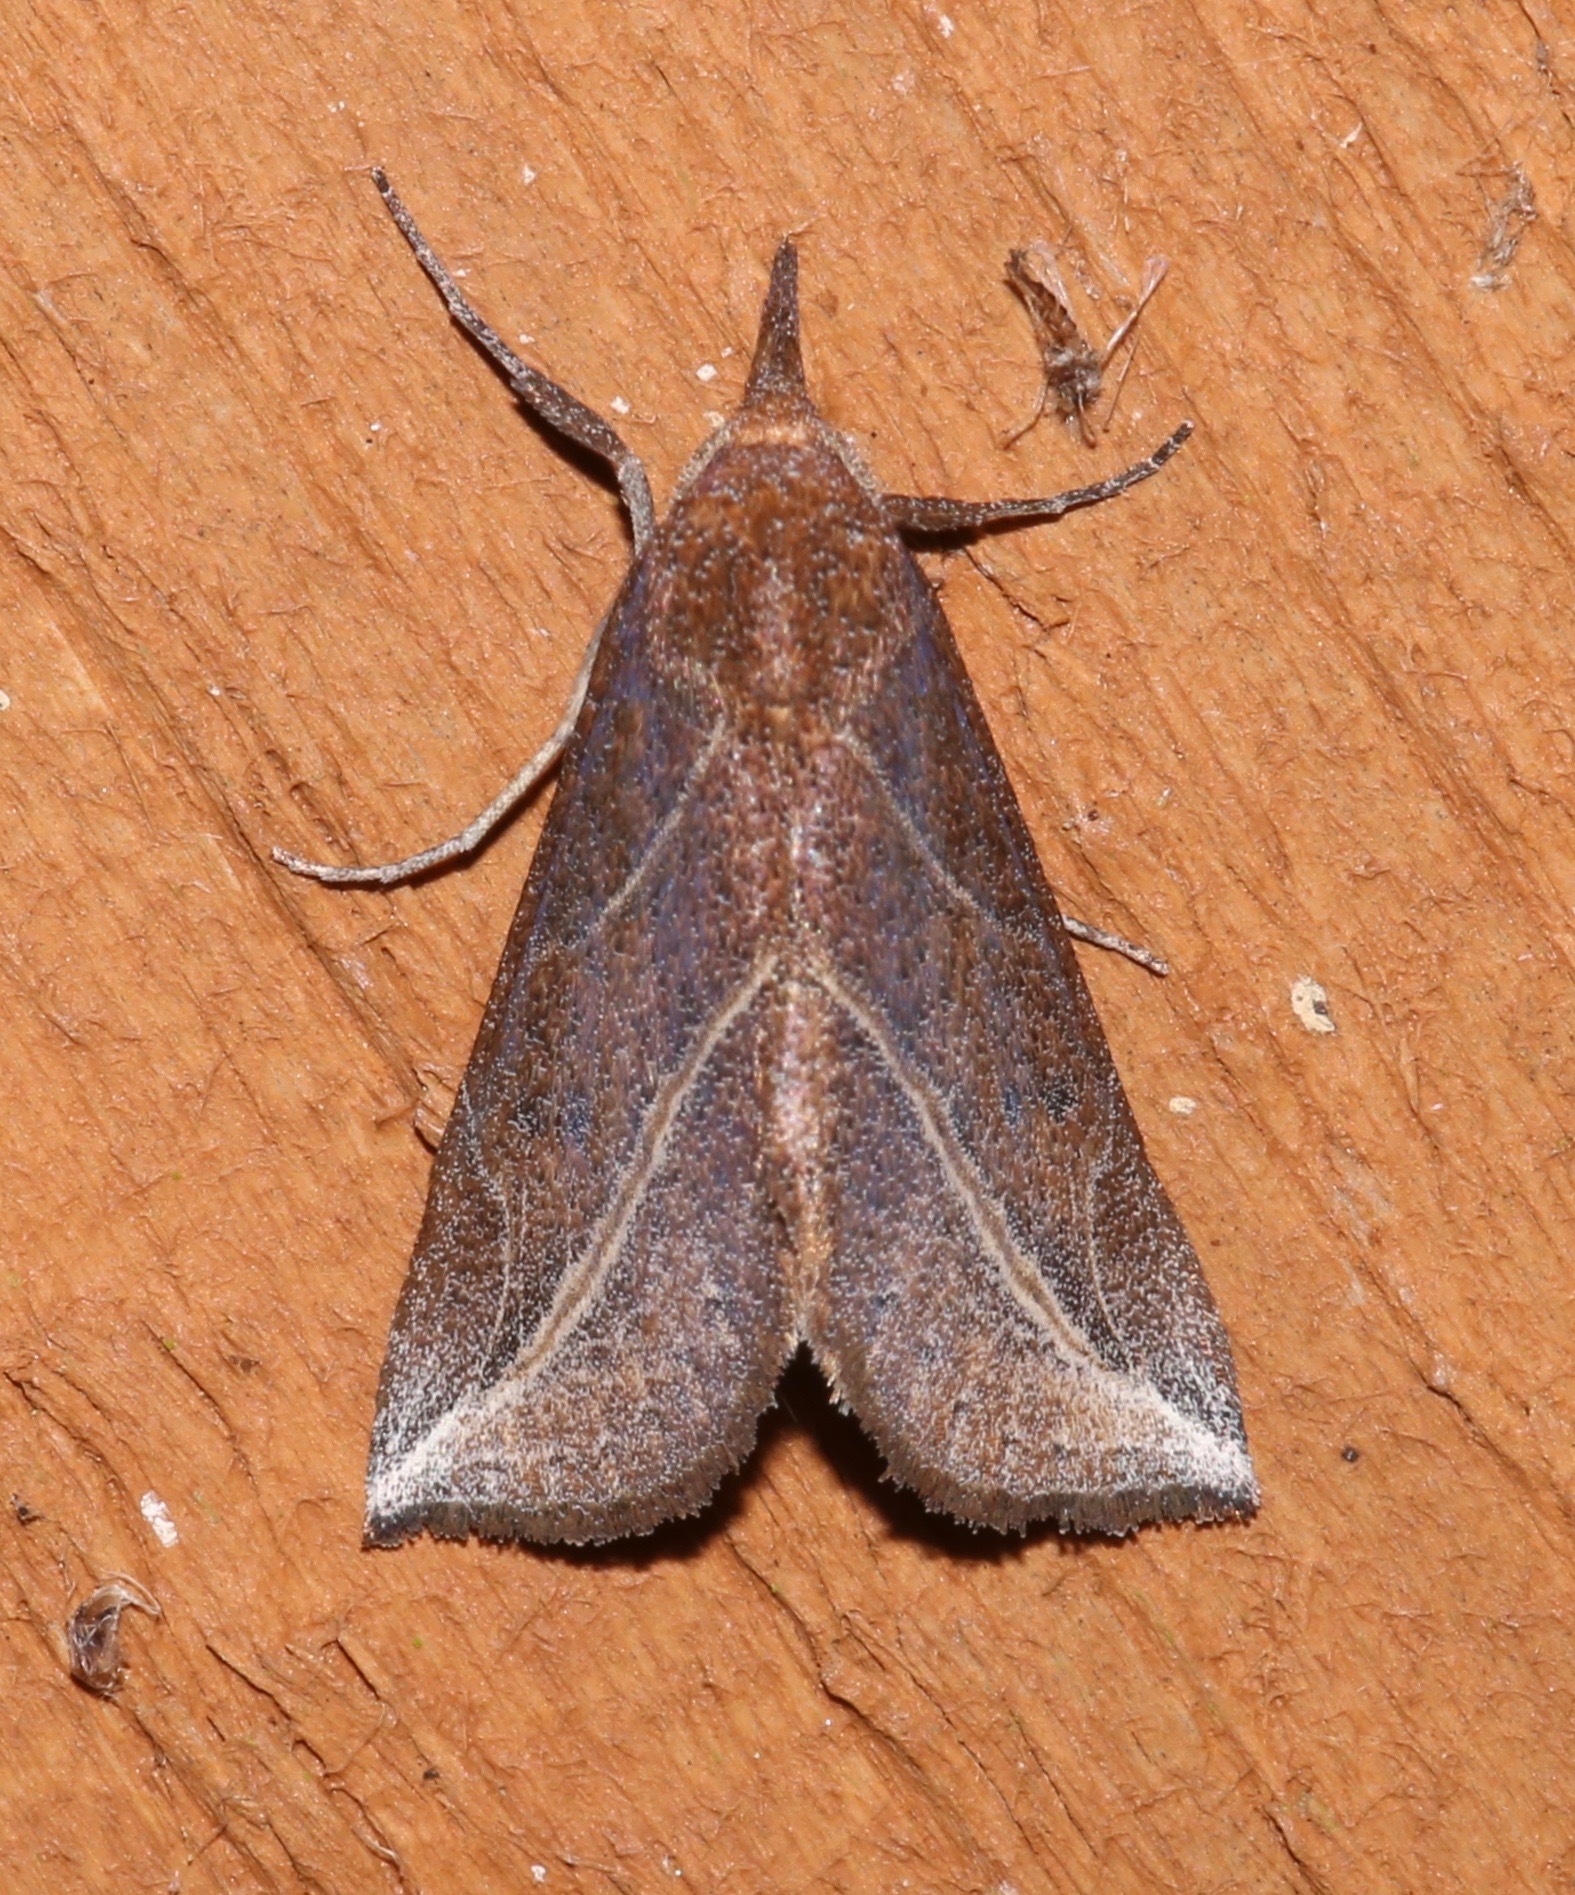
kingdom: Animalia
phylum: Arthropoda
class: Insecta
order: Lepidoptera
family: Erebidae
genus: Phyprosopus
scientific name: Phyprosopus callitrichoides
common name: Curved-lined owlet
